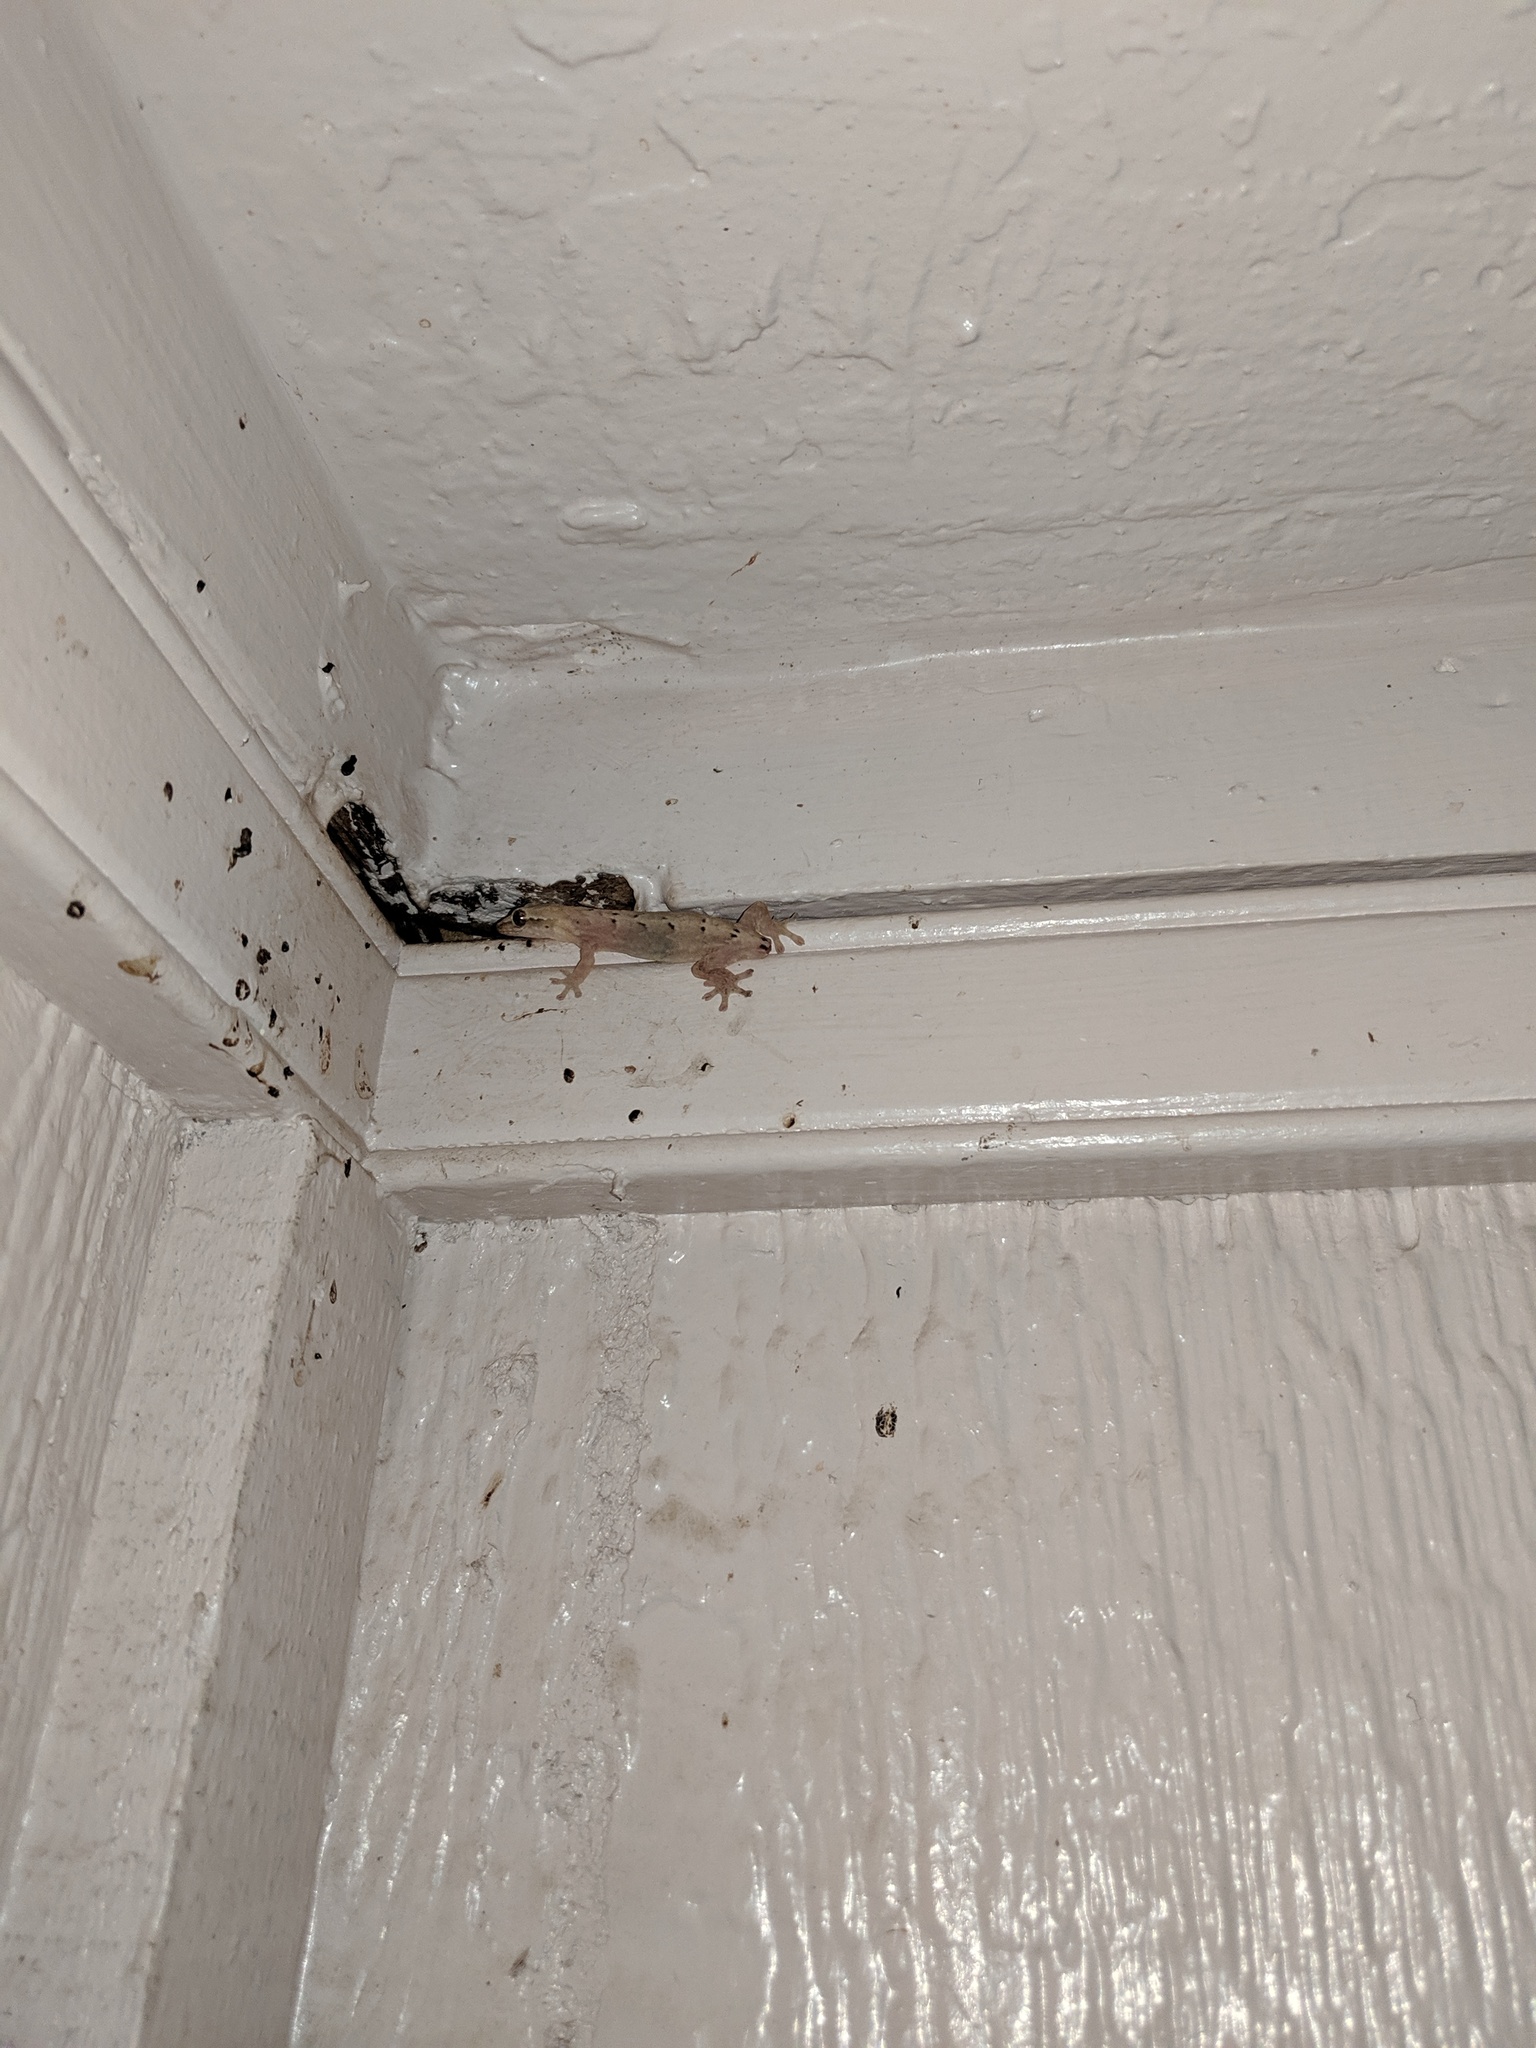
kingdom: Animalia
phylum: Chordata
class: Squamata
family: Gekkonidae
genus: Lepidodactylus
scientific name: Lepidodactylus lugubris
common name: Mourning gecko
